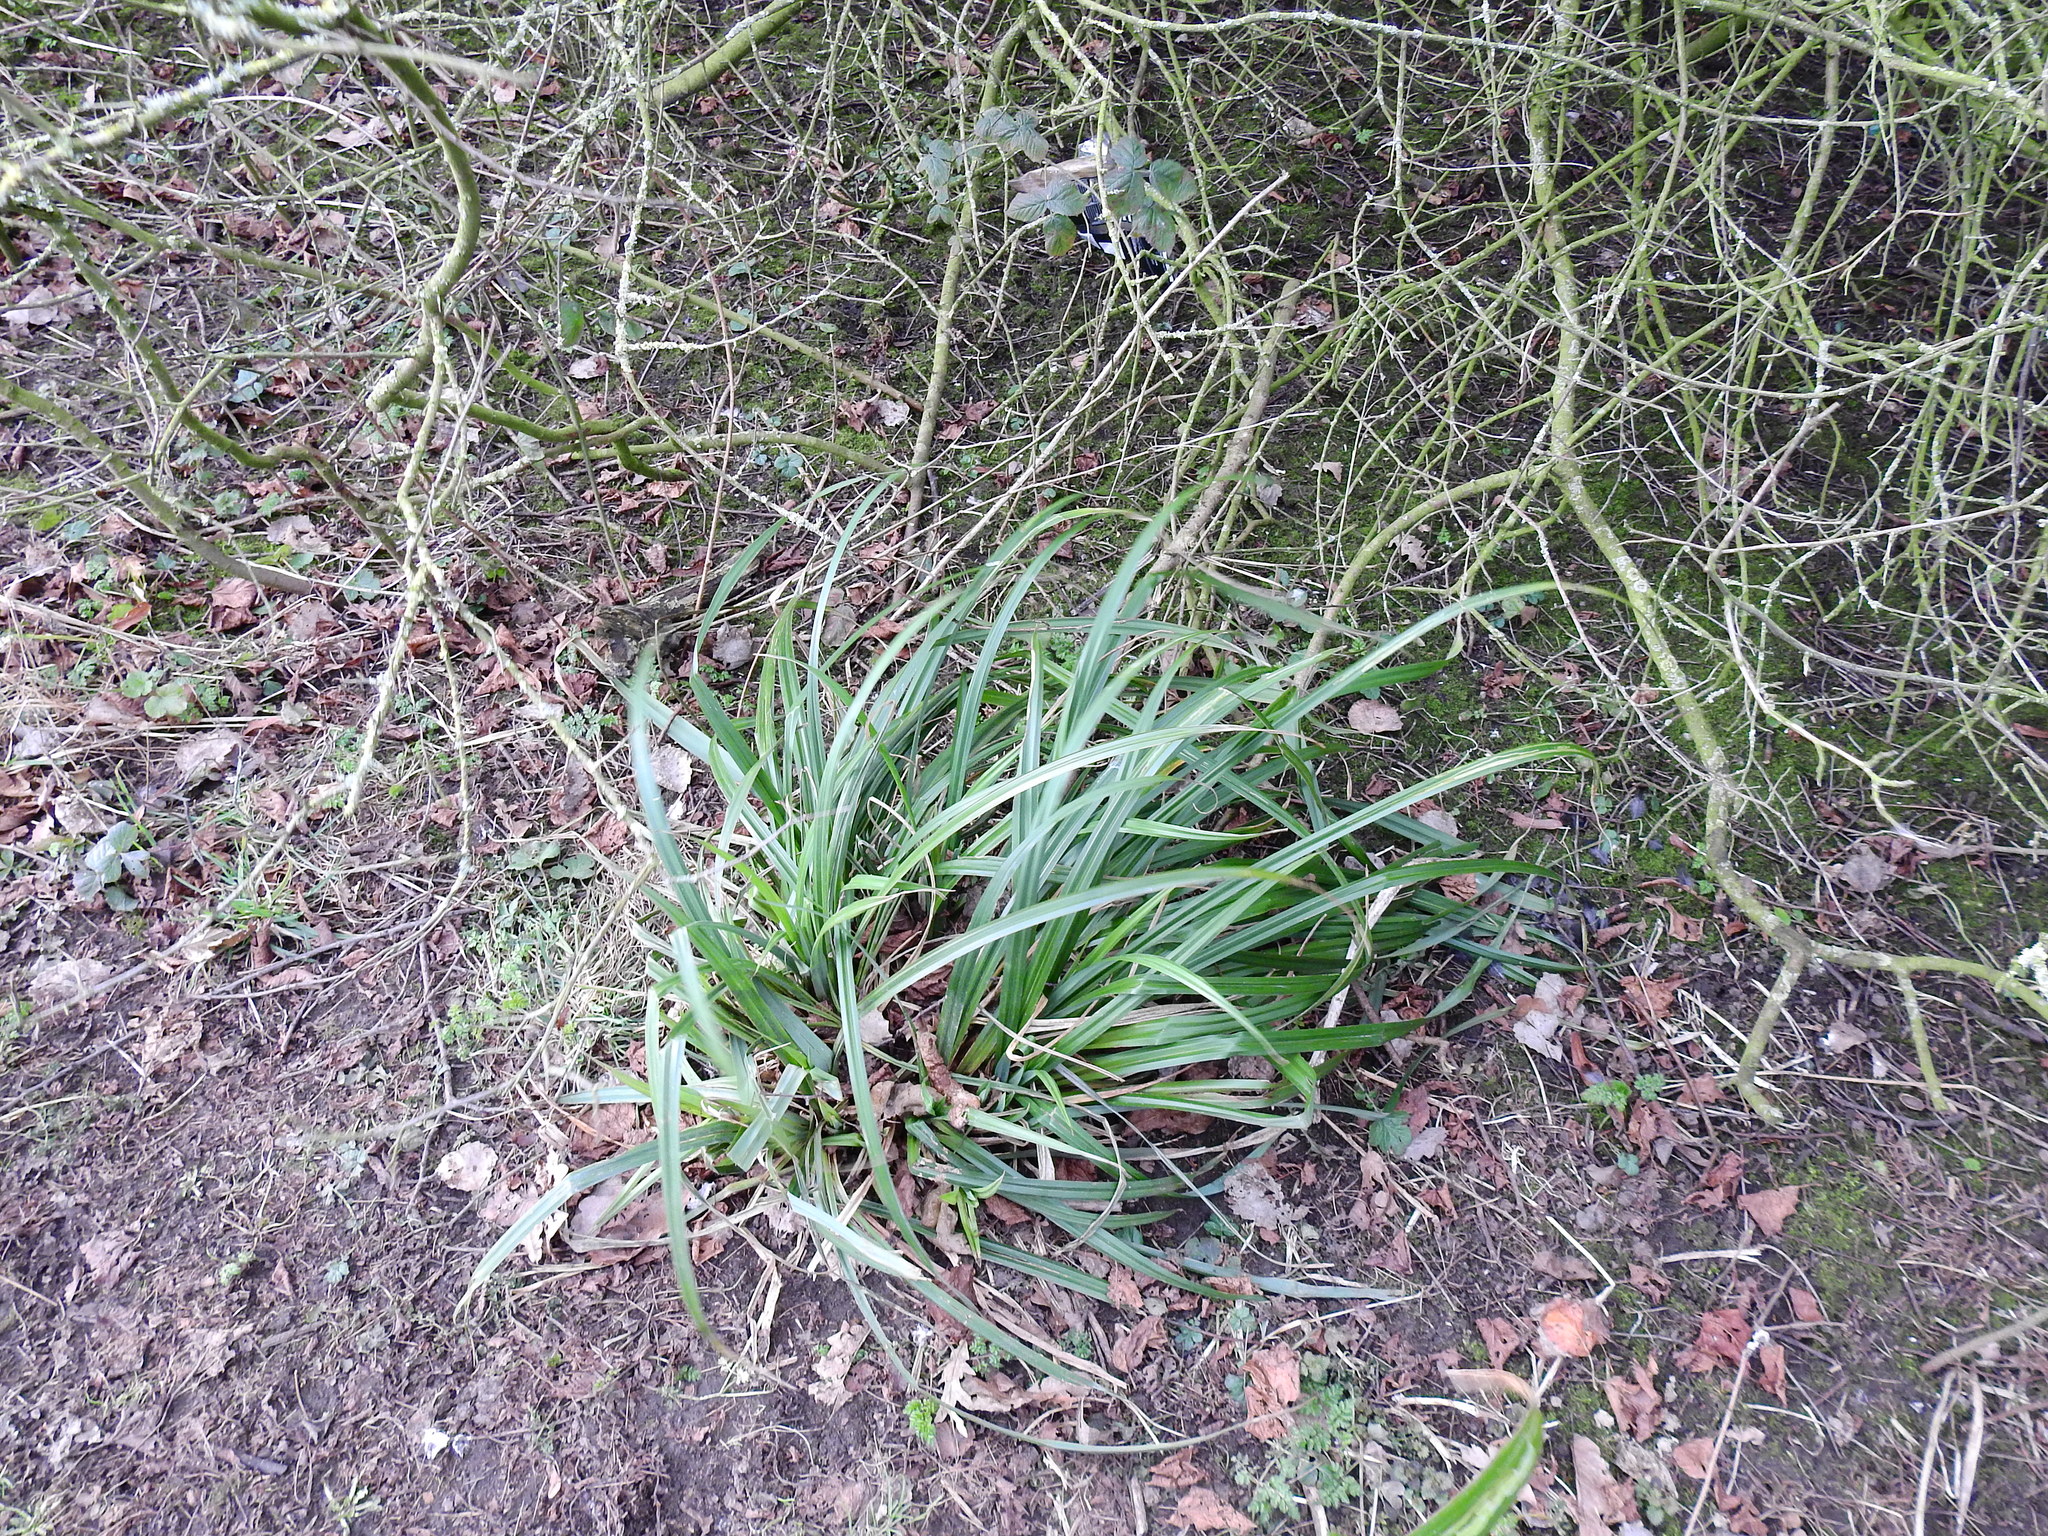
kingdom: Plantae
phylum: Tracheophyta
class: Liliopsida
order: Poales
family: Cyperaceae
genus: Carex
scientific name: Carex pendula
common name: Pendulous sedge
